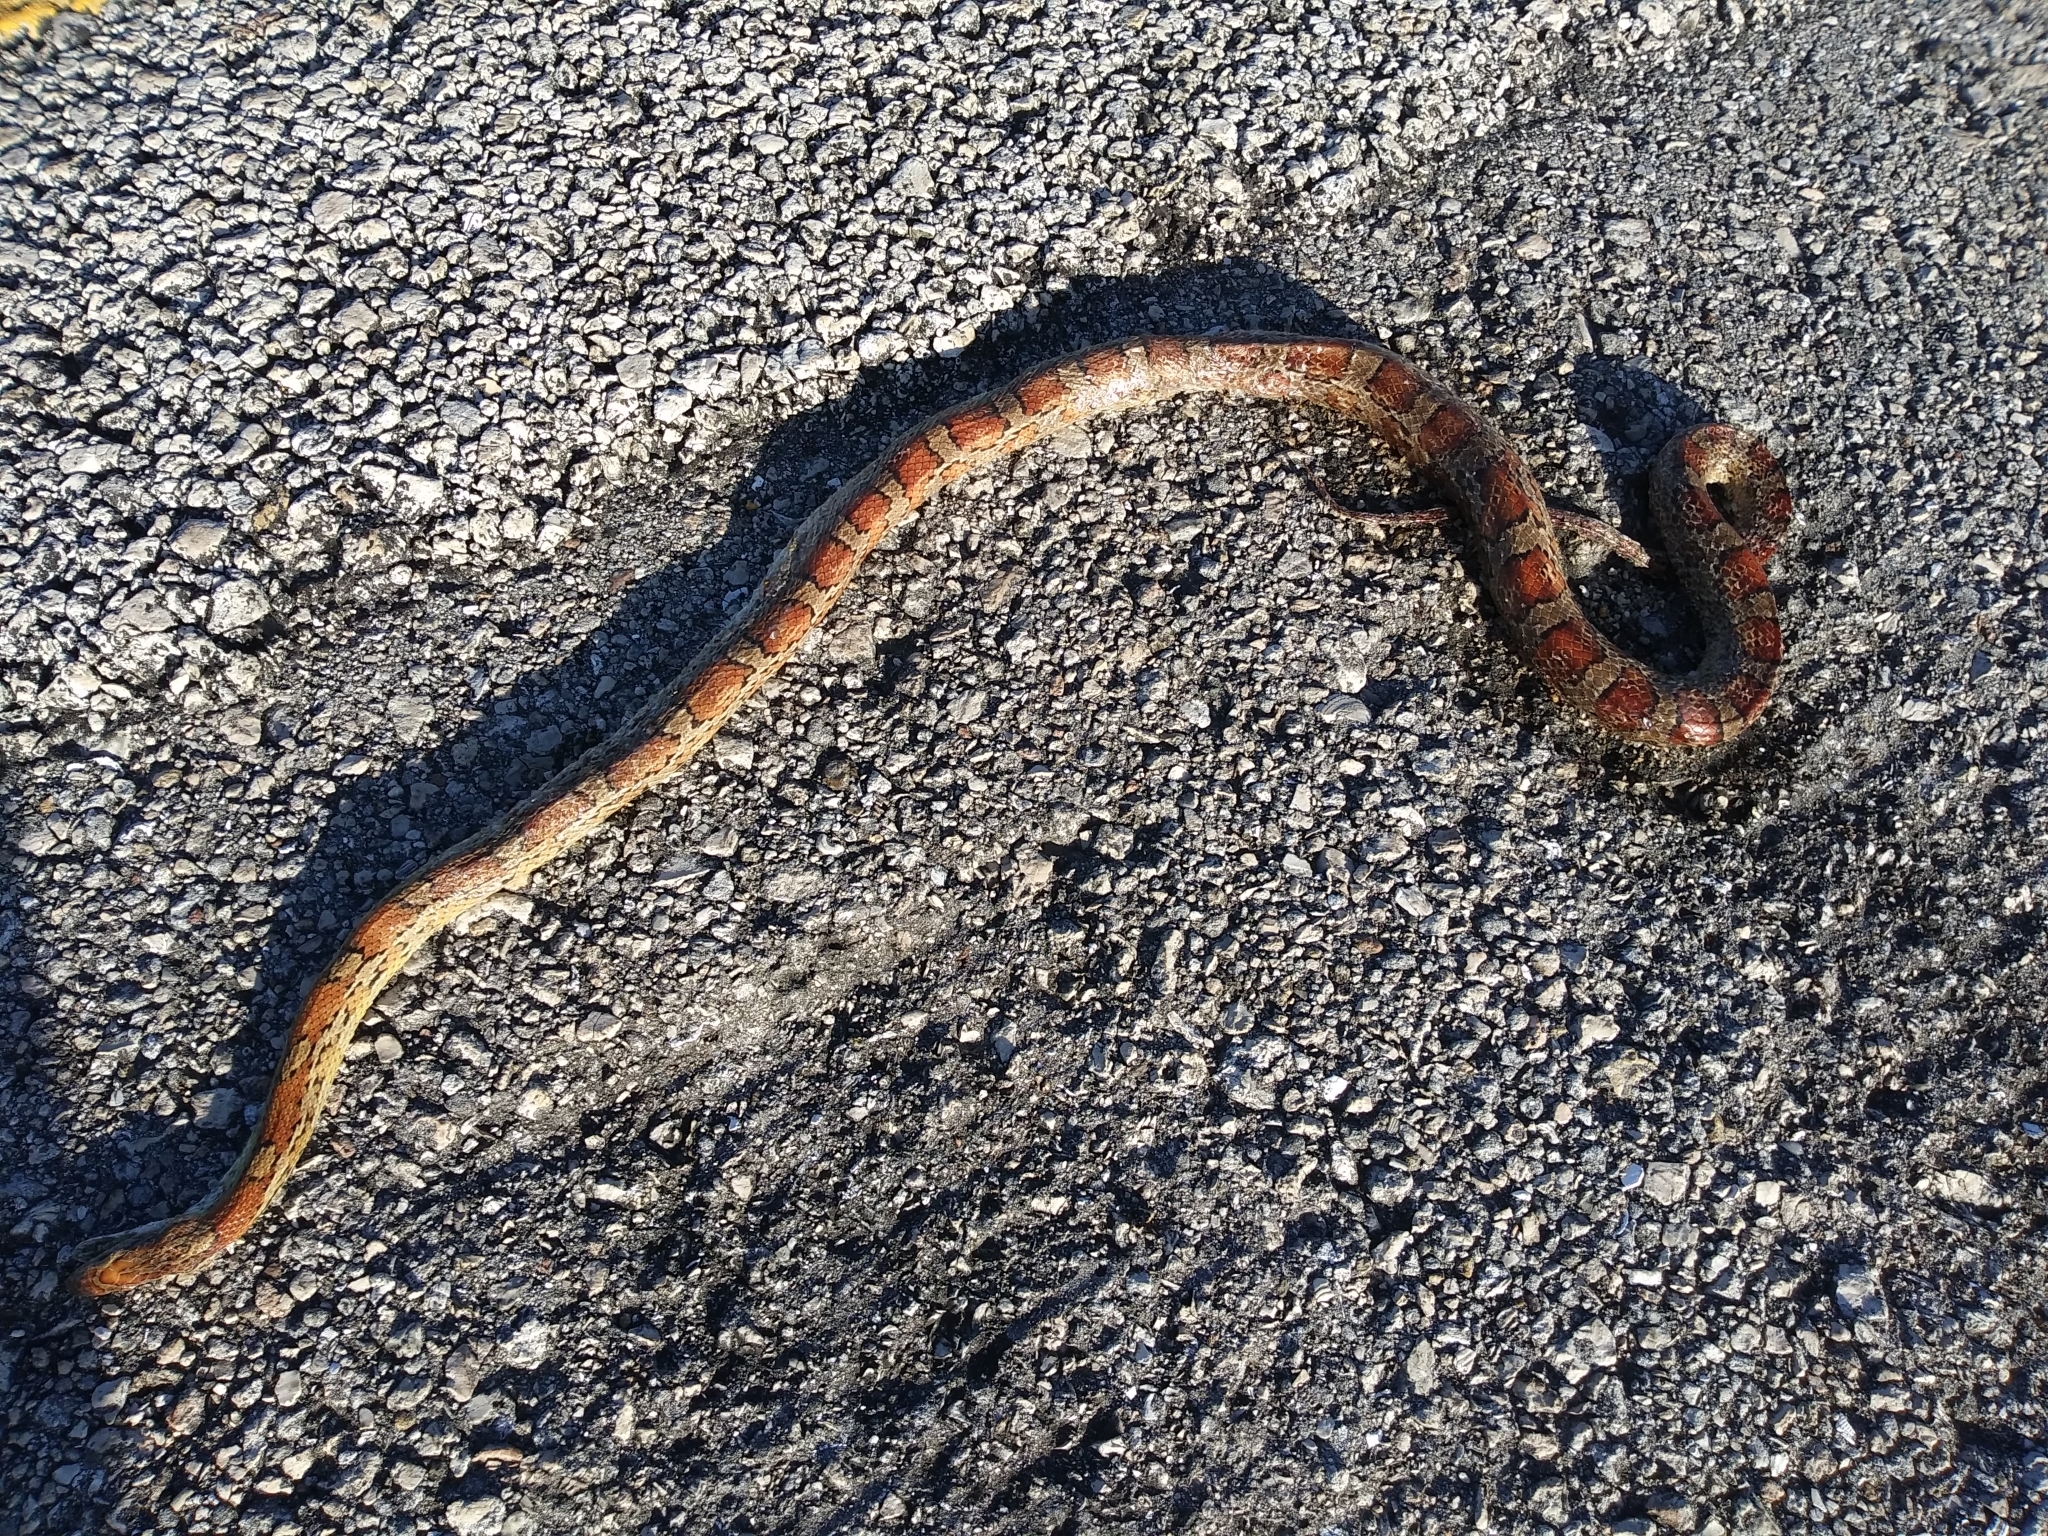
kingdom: Animalia
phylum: Chordata
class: Squamata
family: Colubridae
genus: Pantherophis
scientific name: Pantherophis guttatus
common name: Red cornsnake
